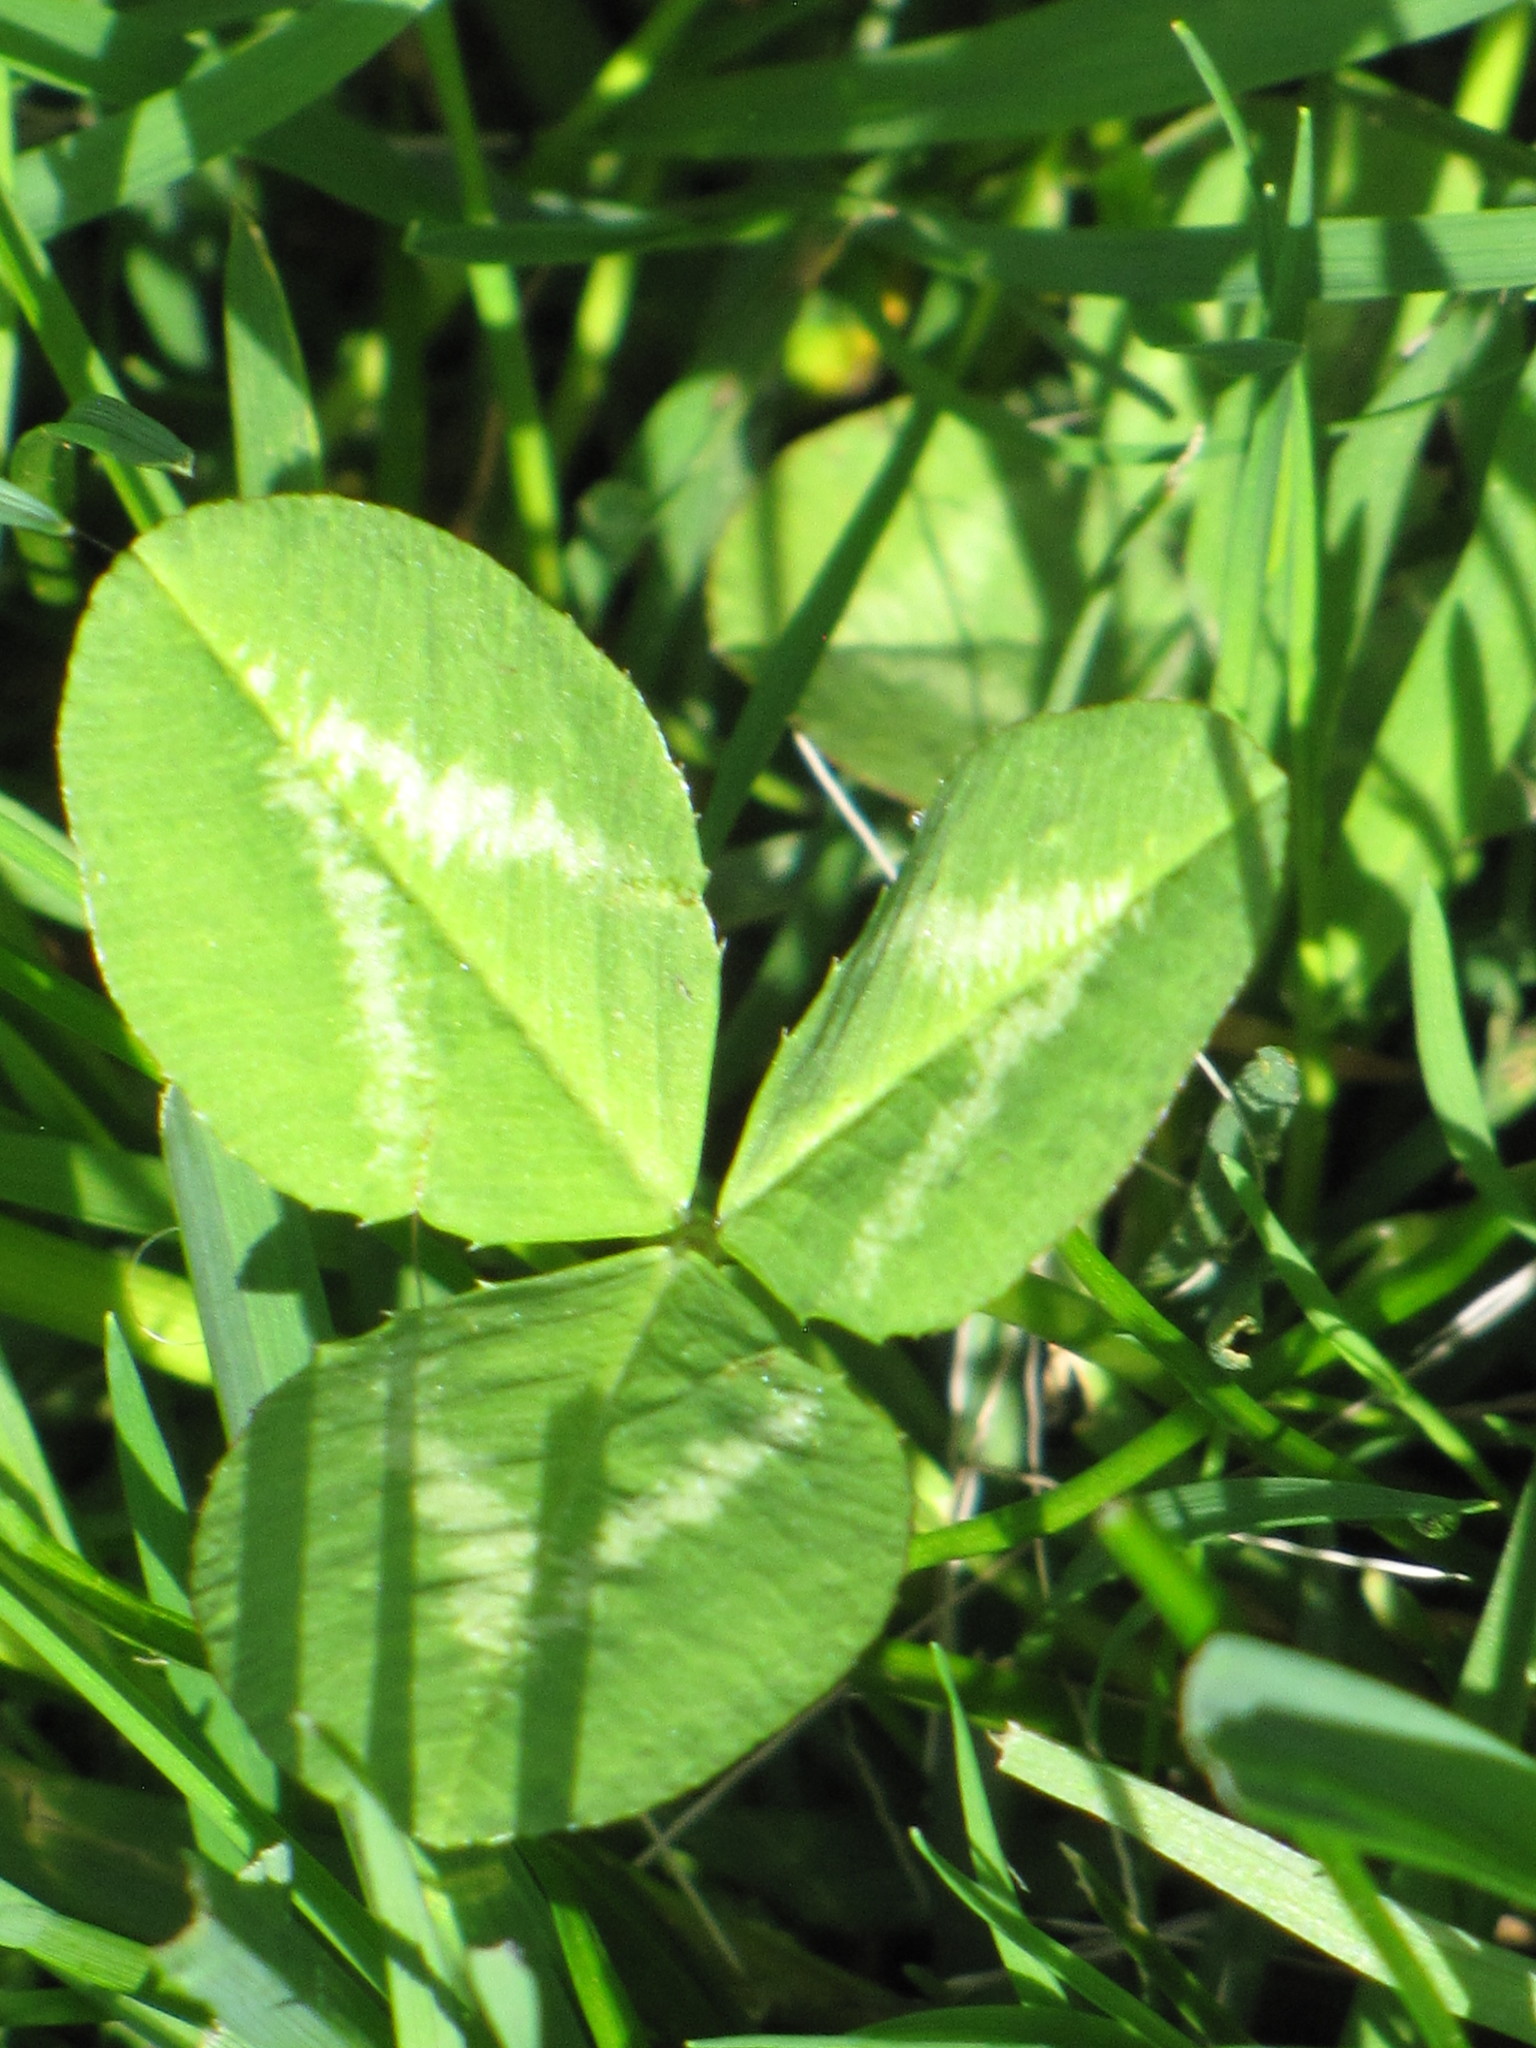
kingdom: Plantae
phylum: Tracheophyta
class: Magnoliopsida
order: Fabales
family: Fabaceae
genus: Trifolium
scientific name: Trifolium repens
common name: White clover
